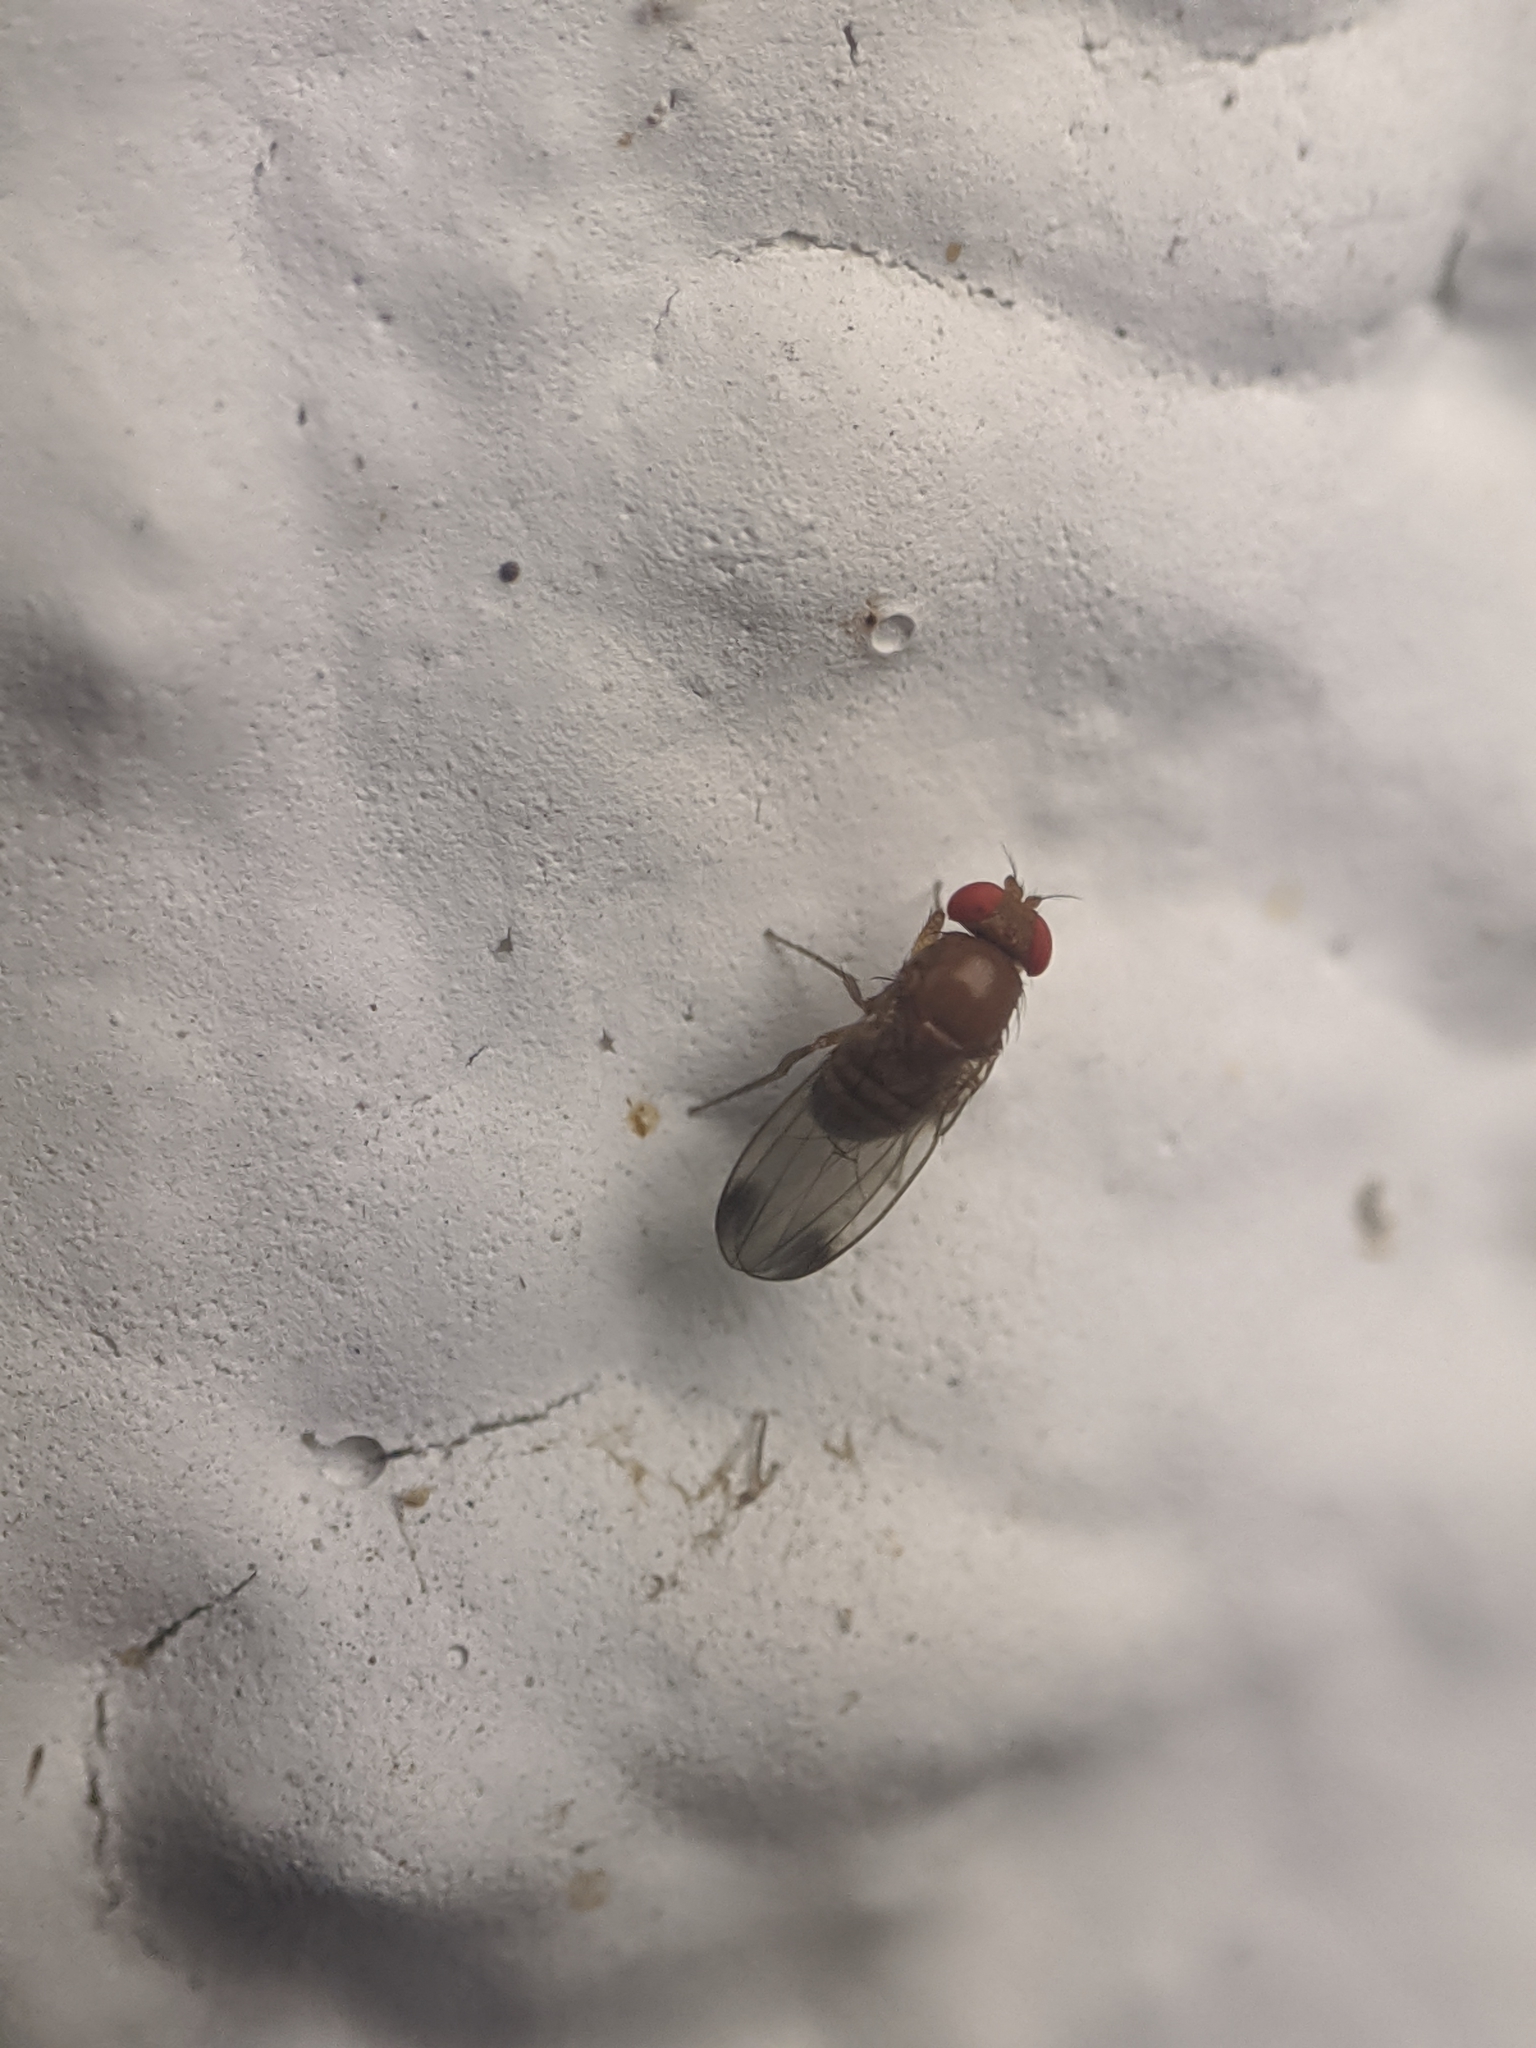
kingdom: Animalia
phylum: Arthropoda
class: Insecta
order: Diptera
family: Drosophilidae
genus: Drosophila
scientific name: Drosophila suzukii
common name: Spotted-wing drosophila
